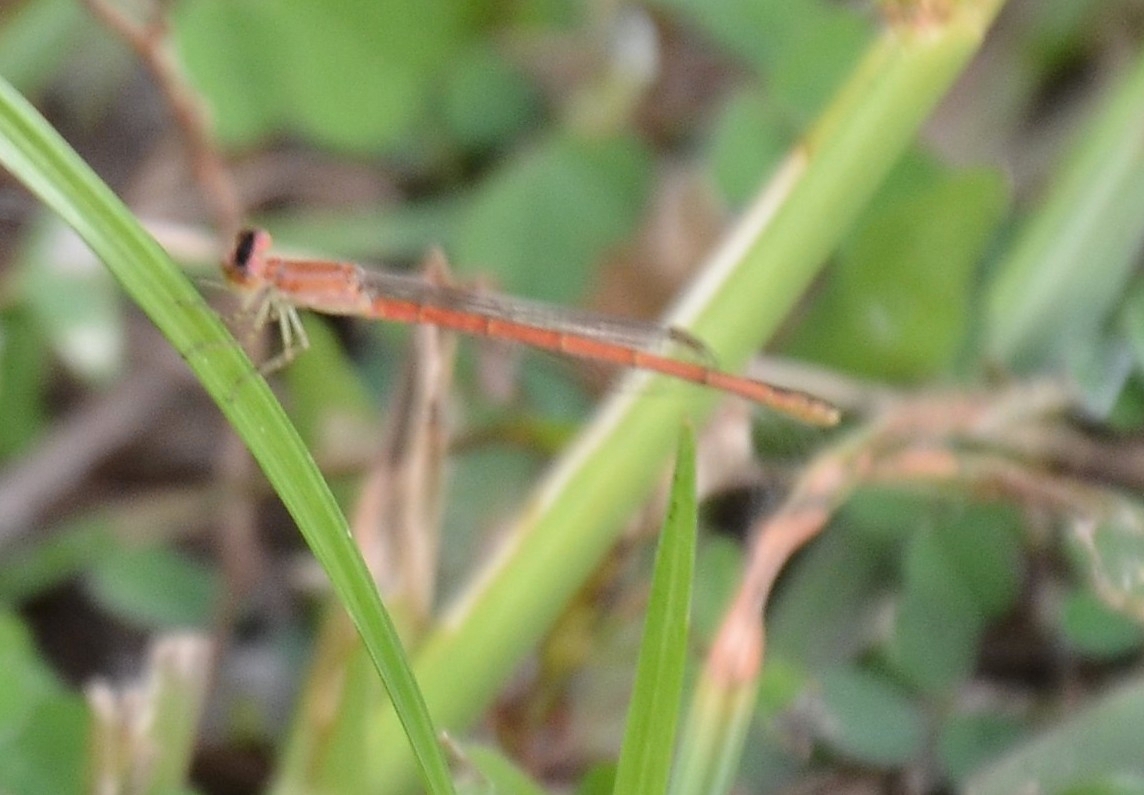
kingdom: Animalia
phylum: Arthropoda
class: Insecta
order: Odonata
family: Coenagrionidae
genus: Agriocnemis
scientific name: Agriocnemis keralensis
